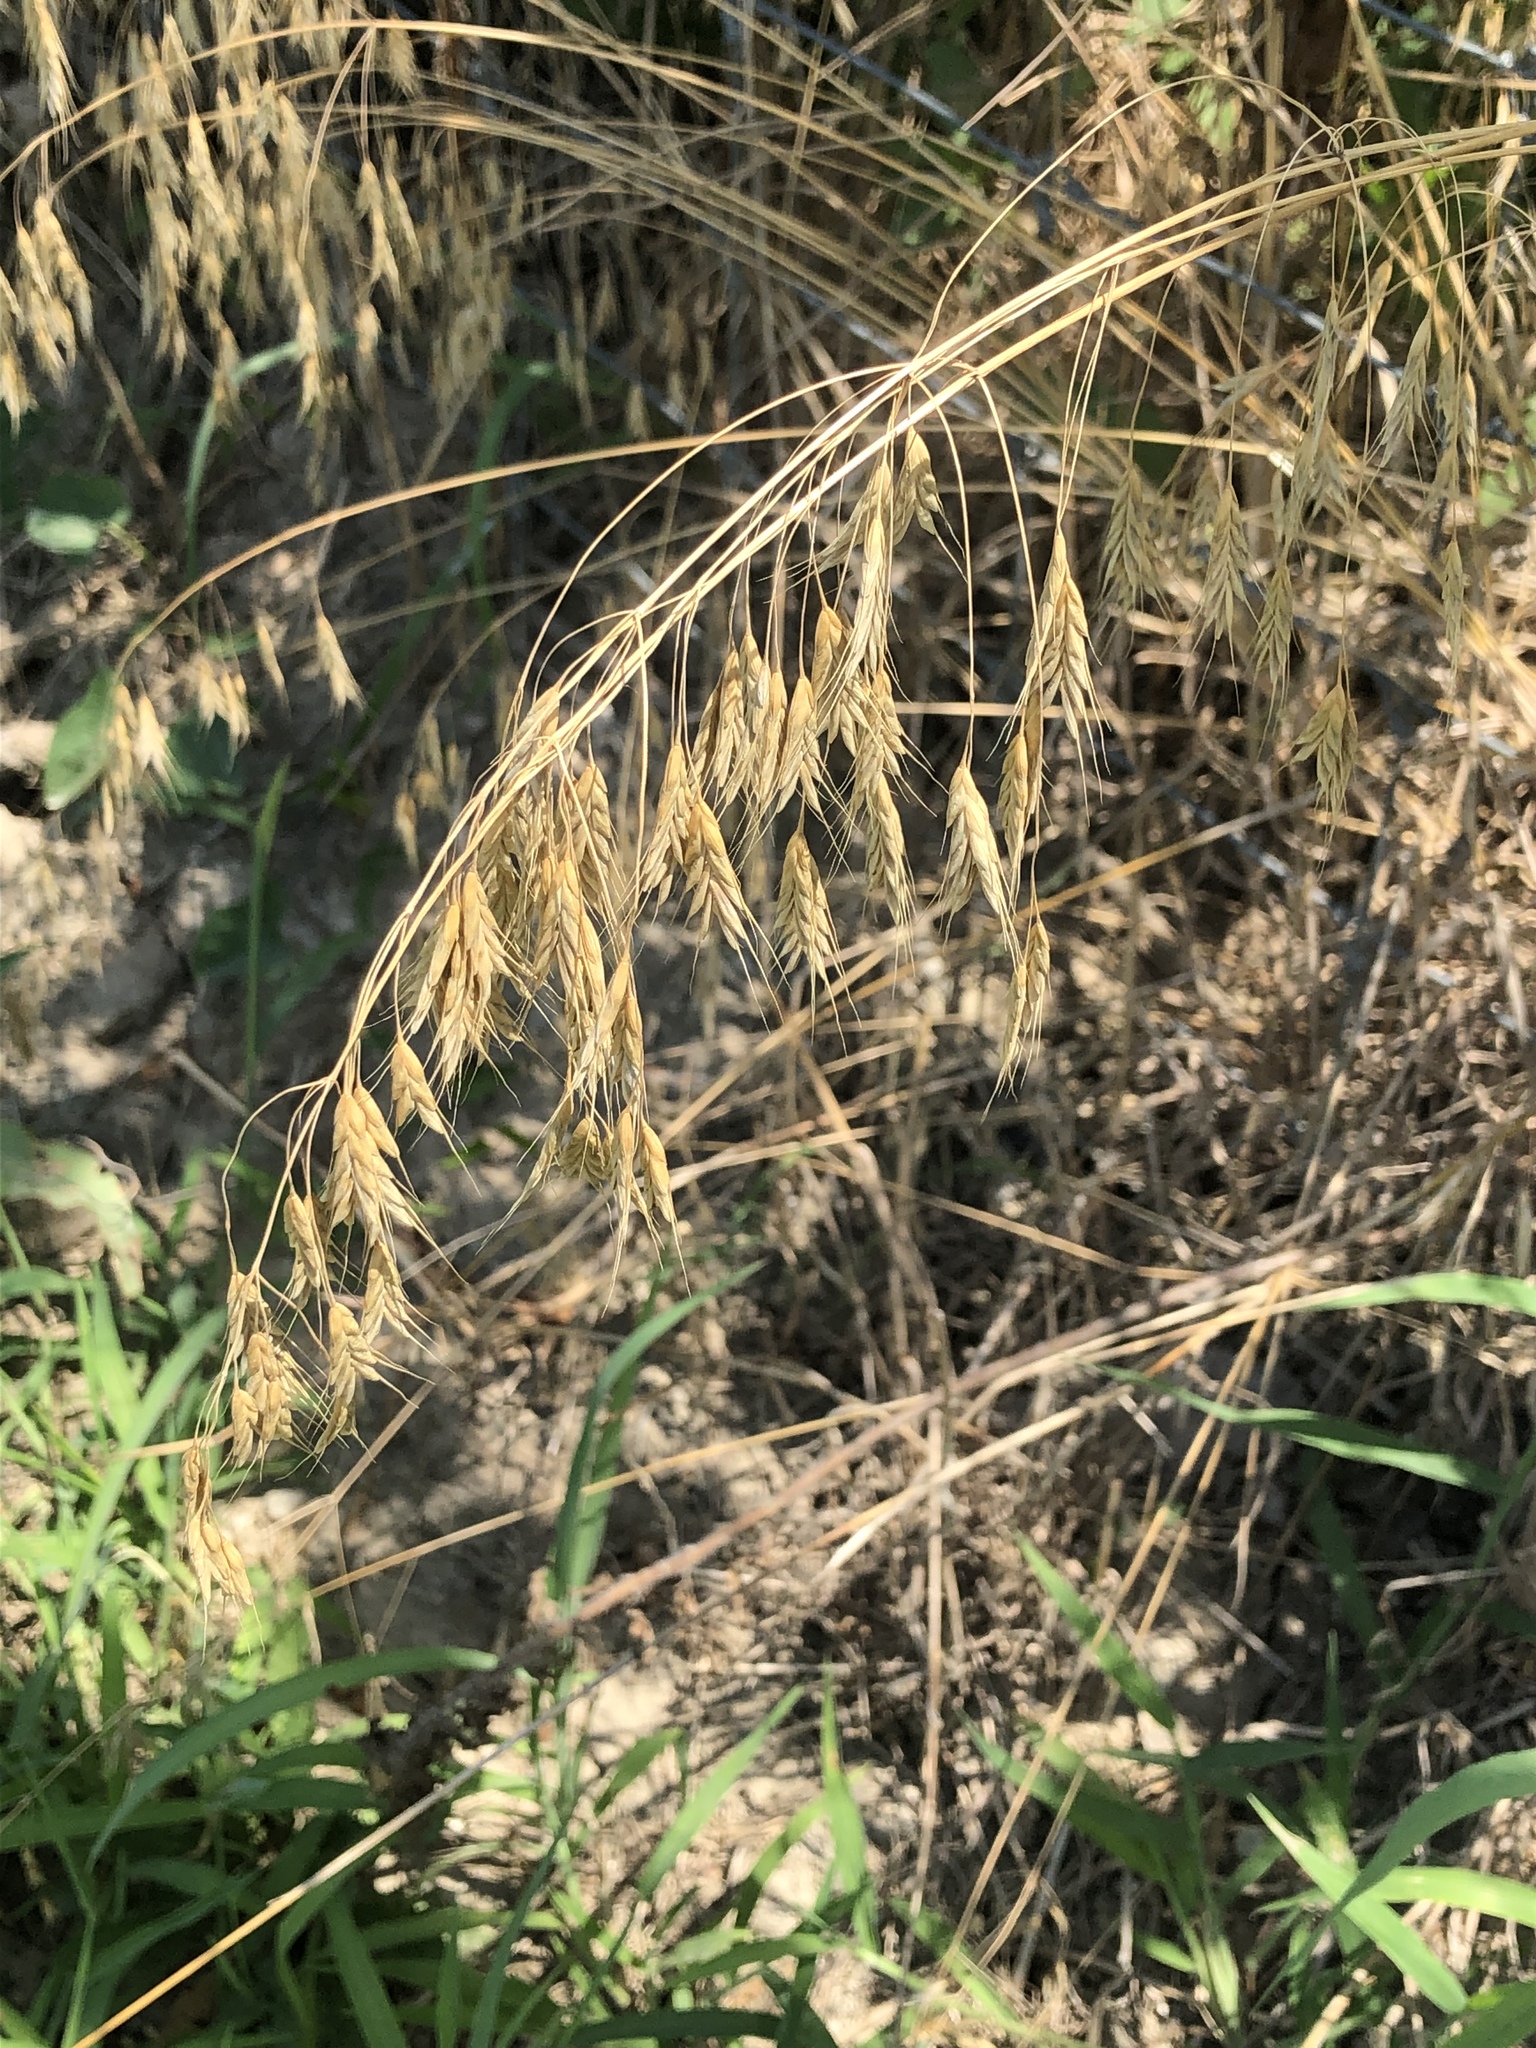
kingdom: Plantae
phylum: Tracheophyta
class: Liliopsida
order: Poales
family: Poaceae
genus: Bromus
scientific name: Bromus japonicus
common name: Japanese brome
